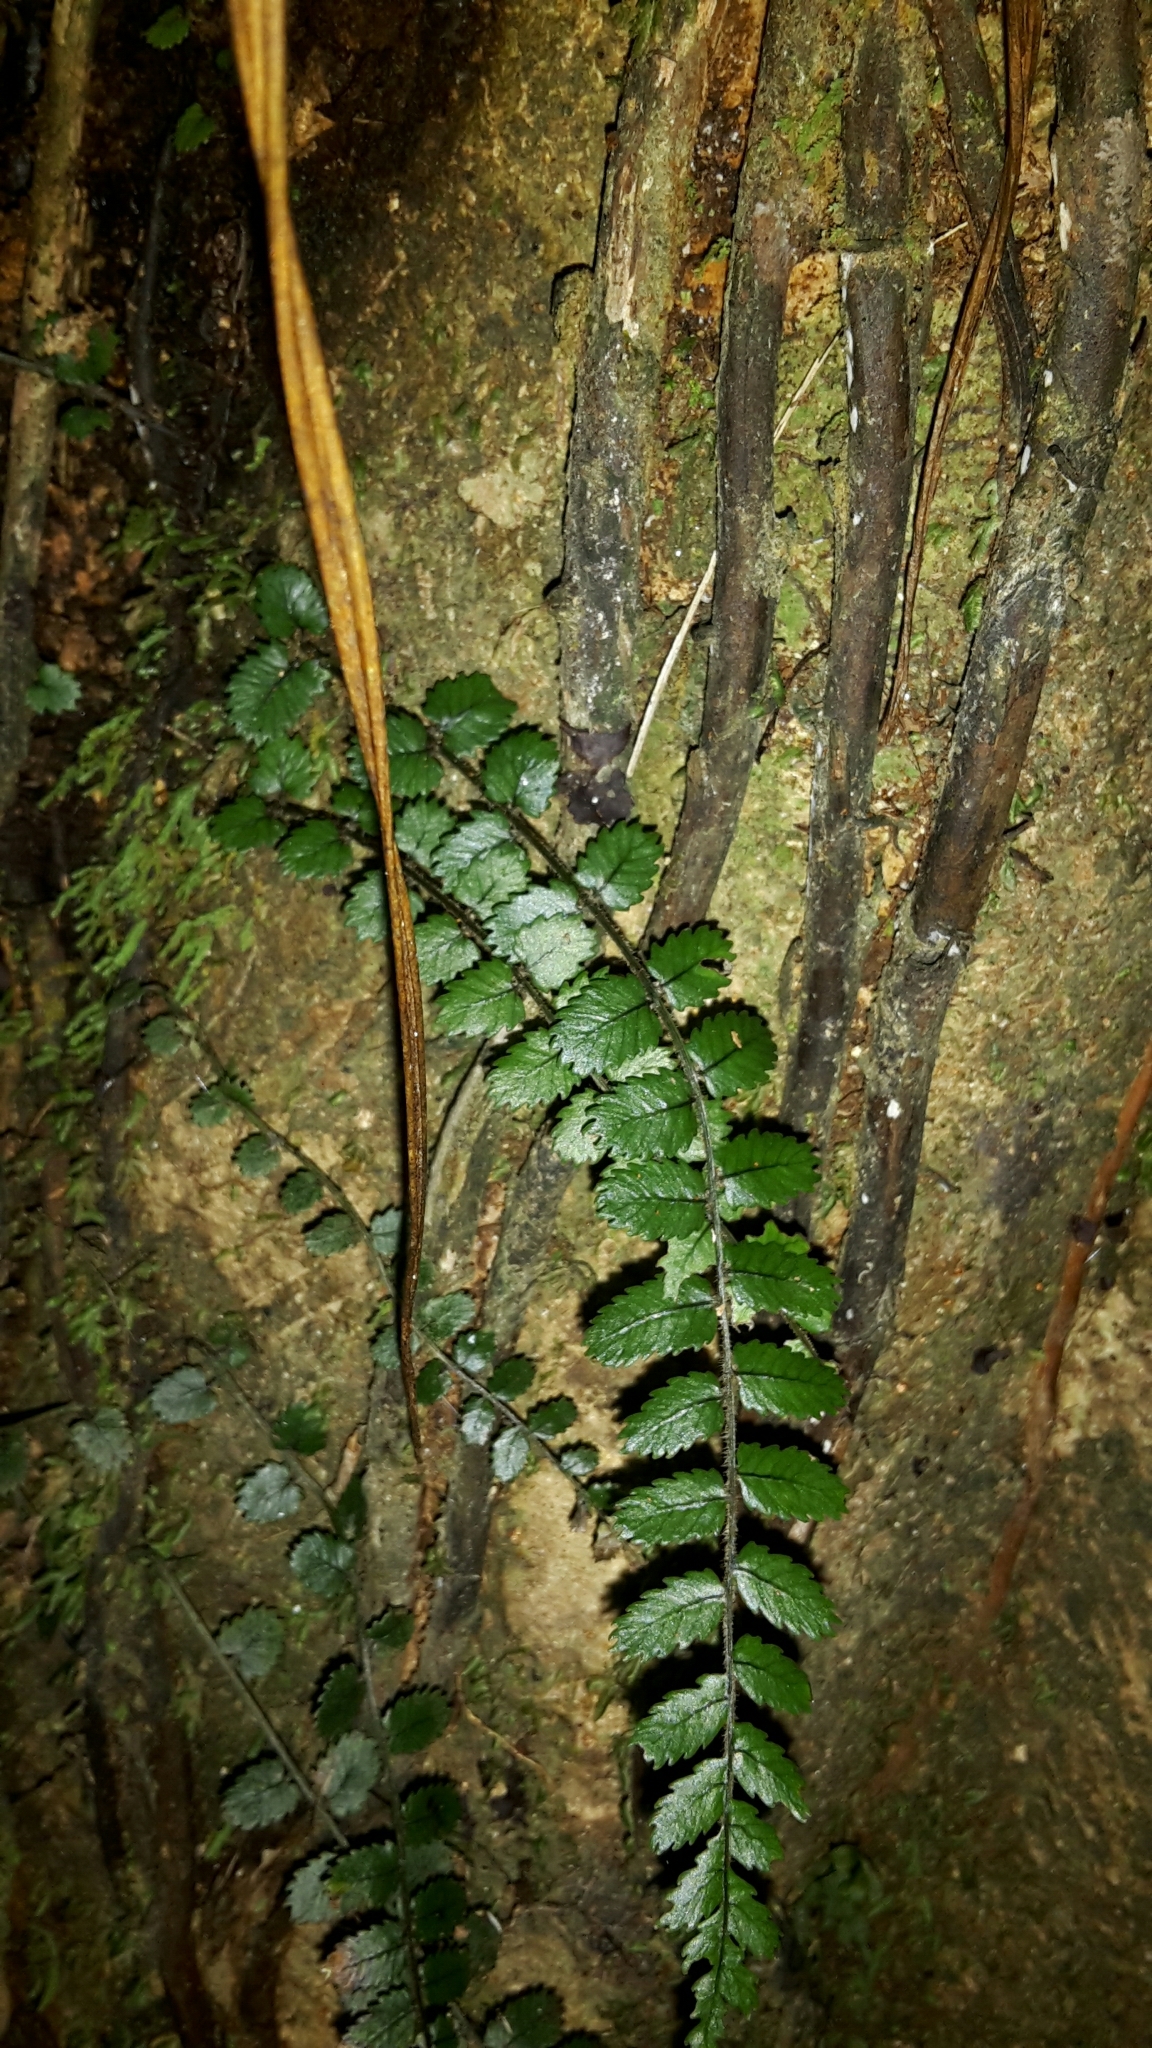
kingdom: Plantae
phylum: Tracheophyta
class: Polypodiopsida
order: Polypodiales
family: Blechnaceae
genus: Icarus
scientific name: Icarus filiformis
